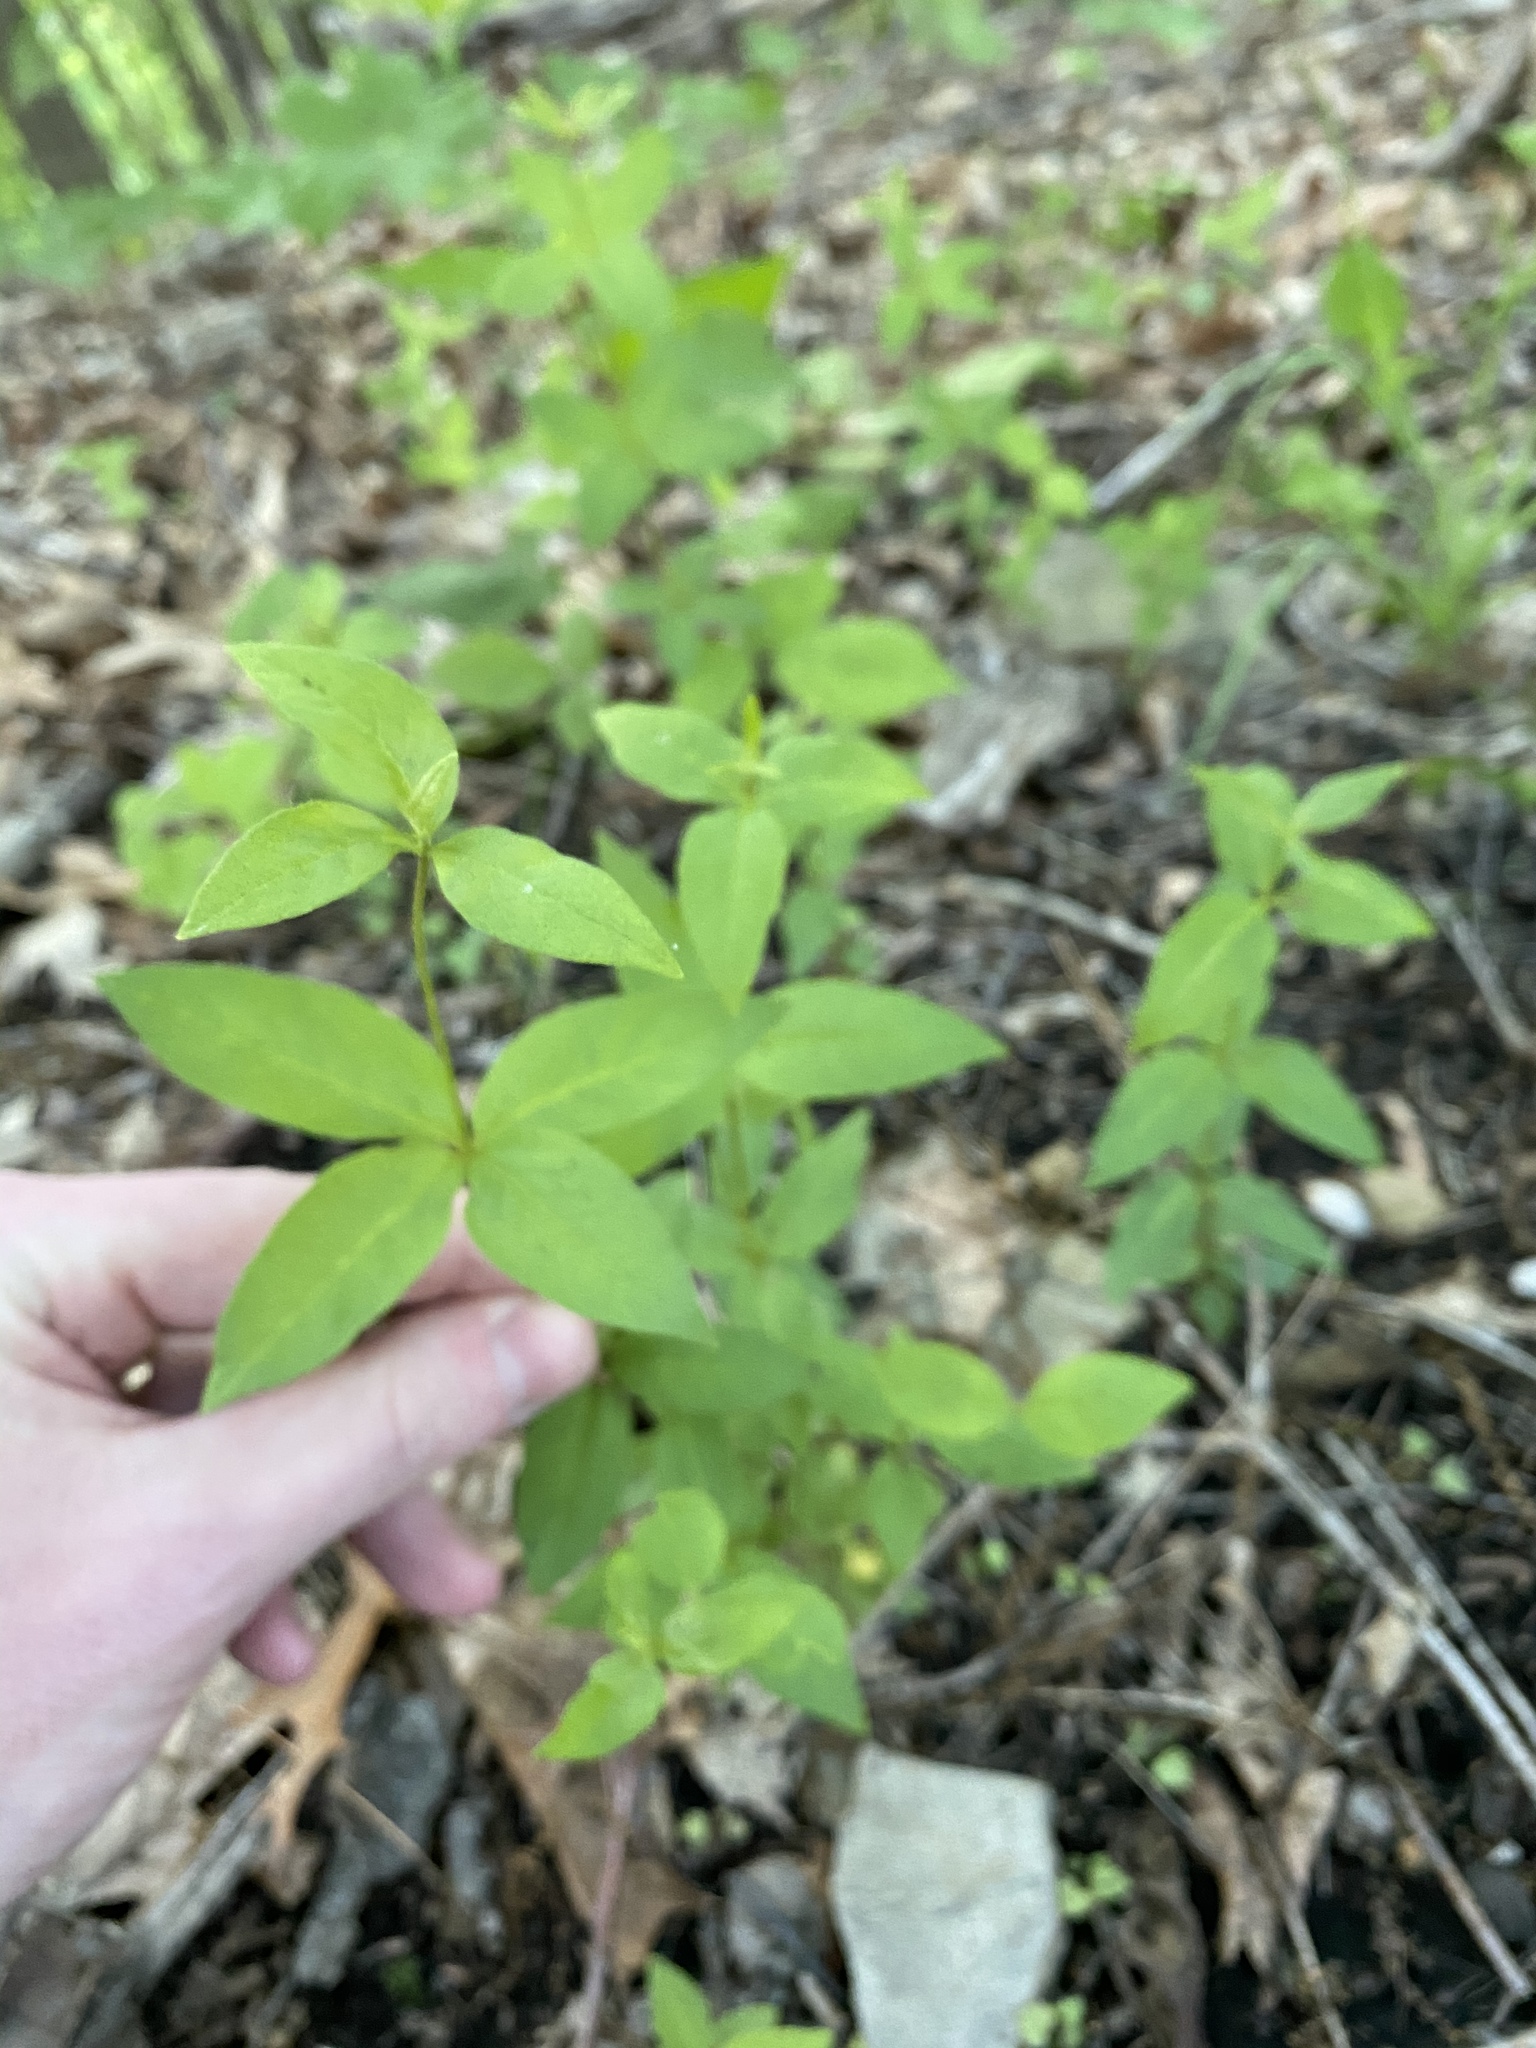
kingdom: Plantae
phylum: Tracheophyta
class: Magnoliopsida
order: Ericales
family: Primulaceae
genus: Lysimachia
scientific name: Lysimachia quadrifolia
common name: Whorled loosestrife
